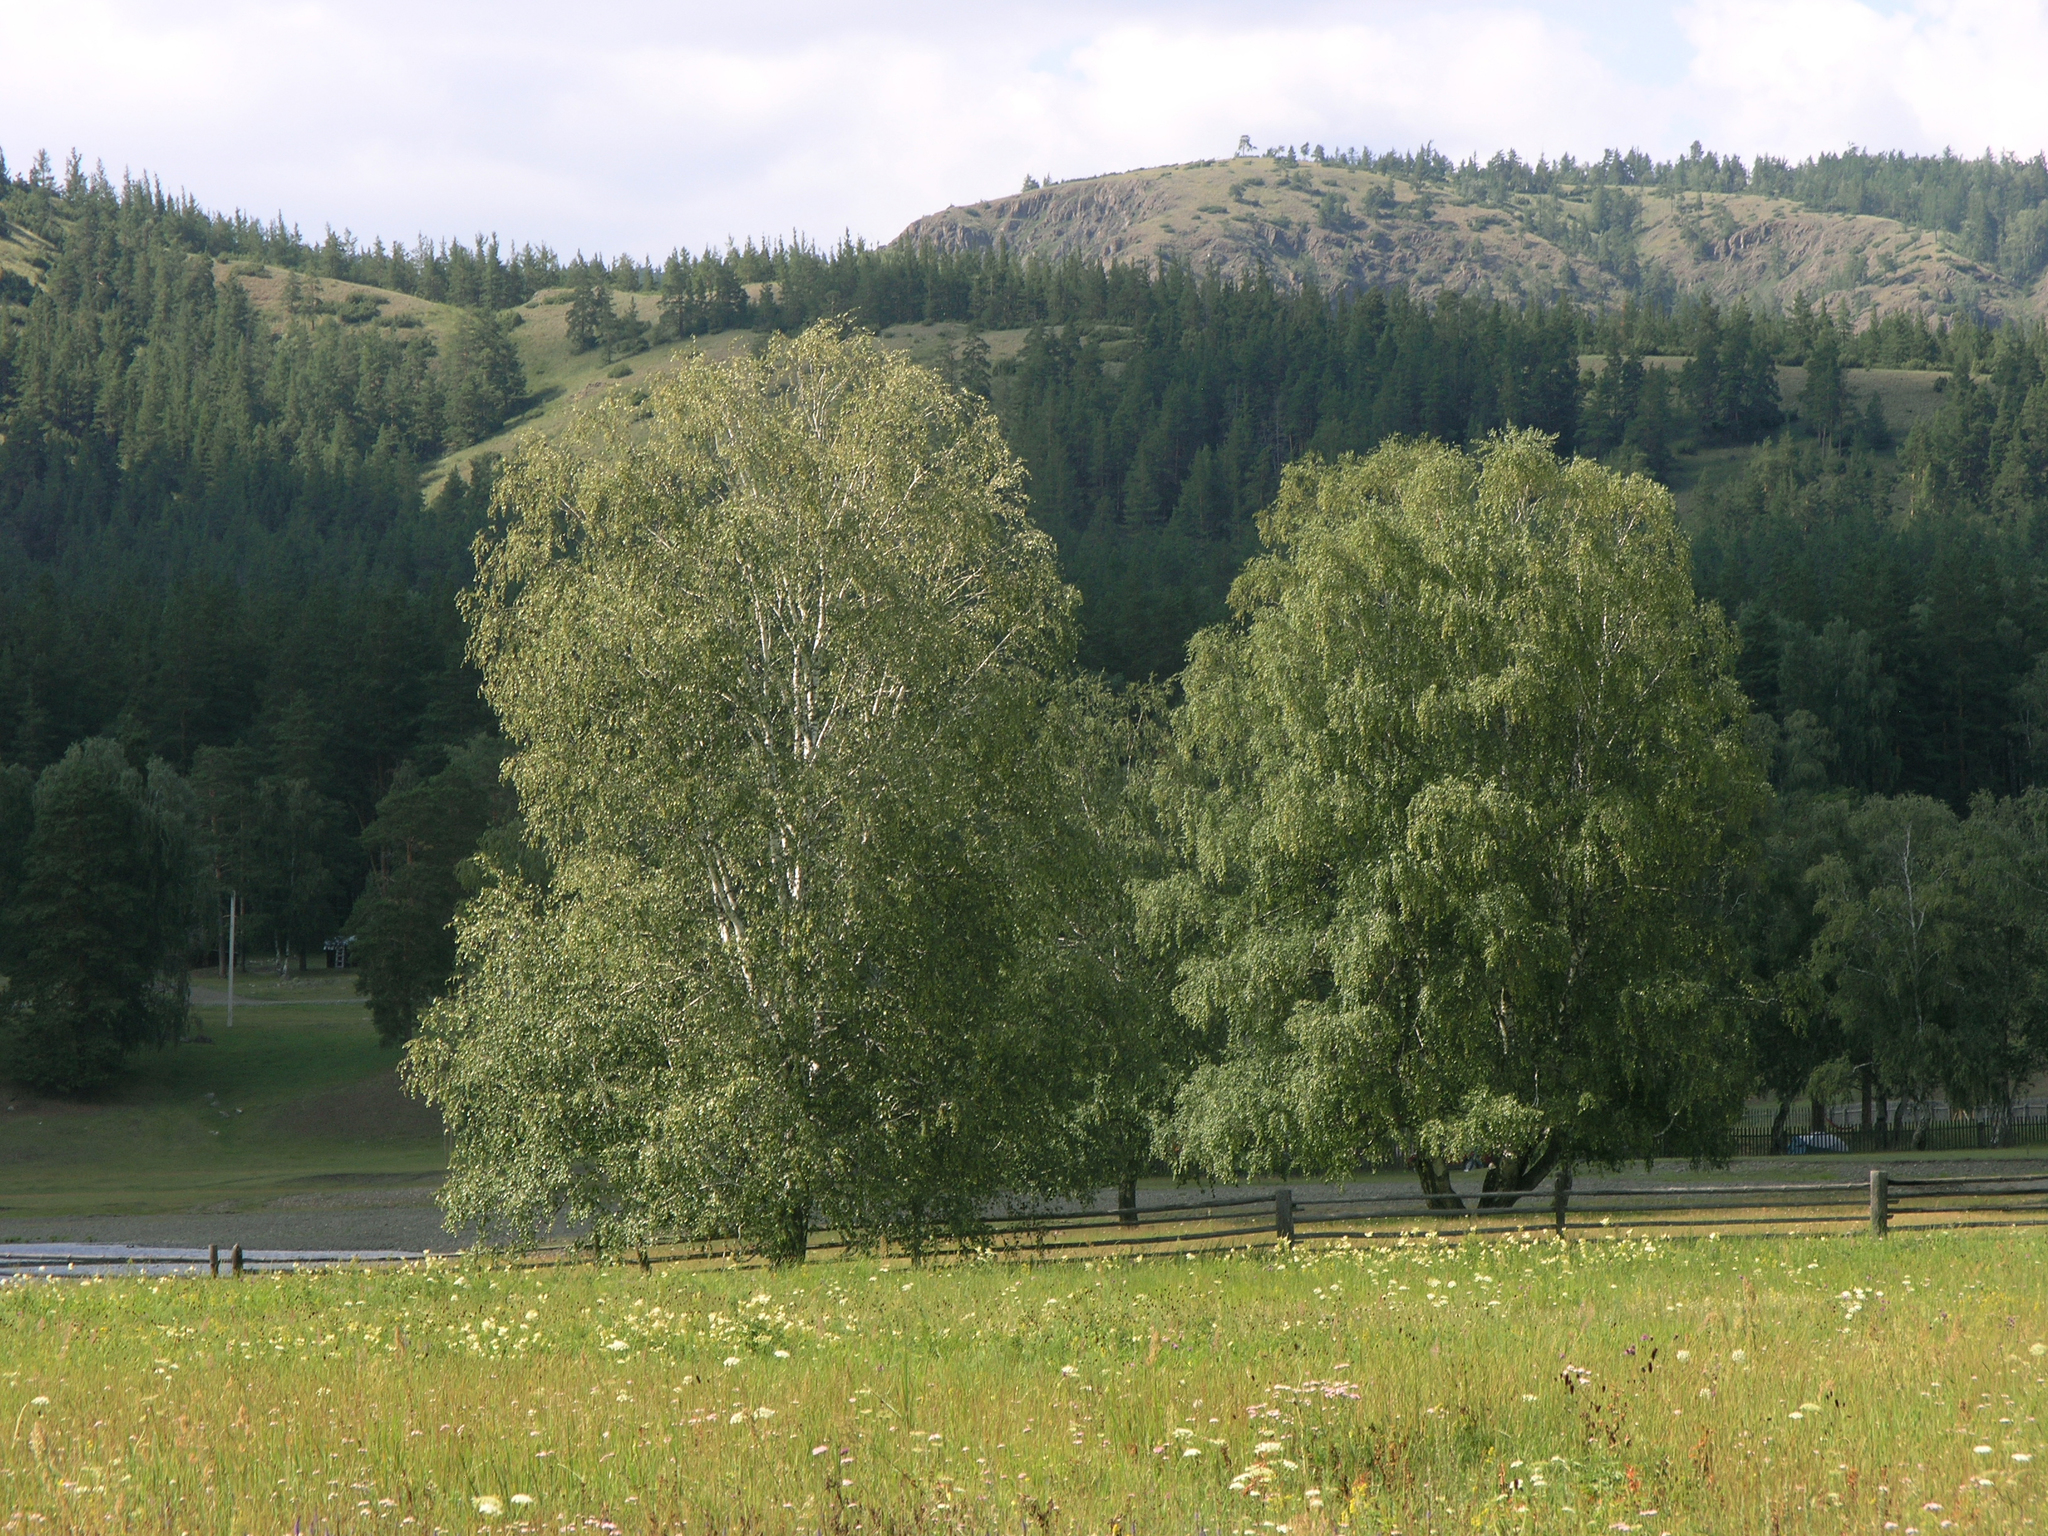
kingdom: Plantae
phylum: Tracheophyta
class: Magnoliopsida
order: Fagales
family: Betulaceae
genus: Betula
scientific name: Betula pendula
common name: Silver birch
